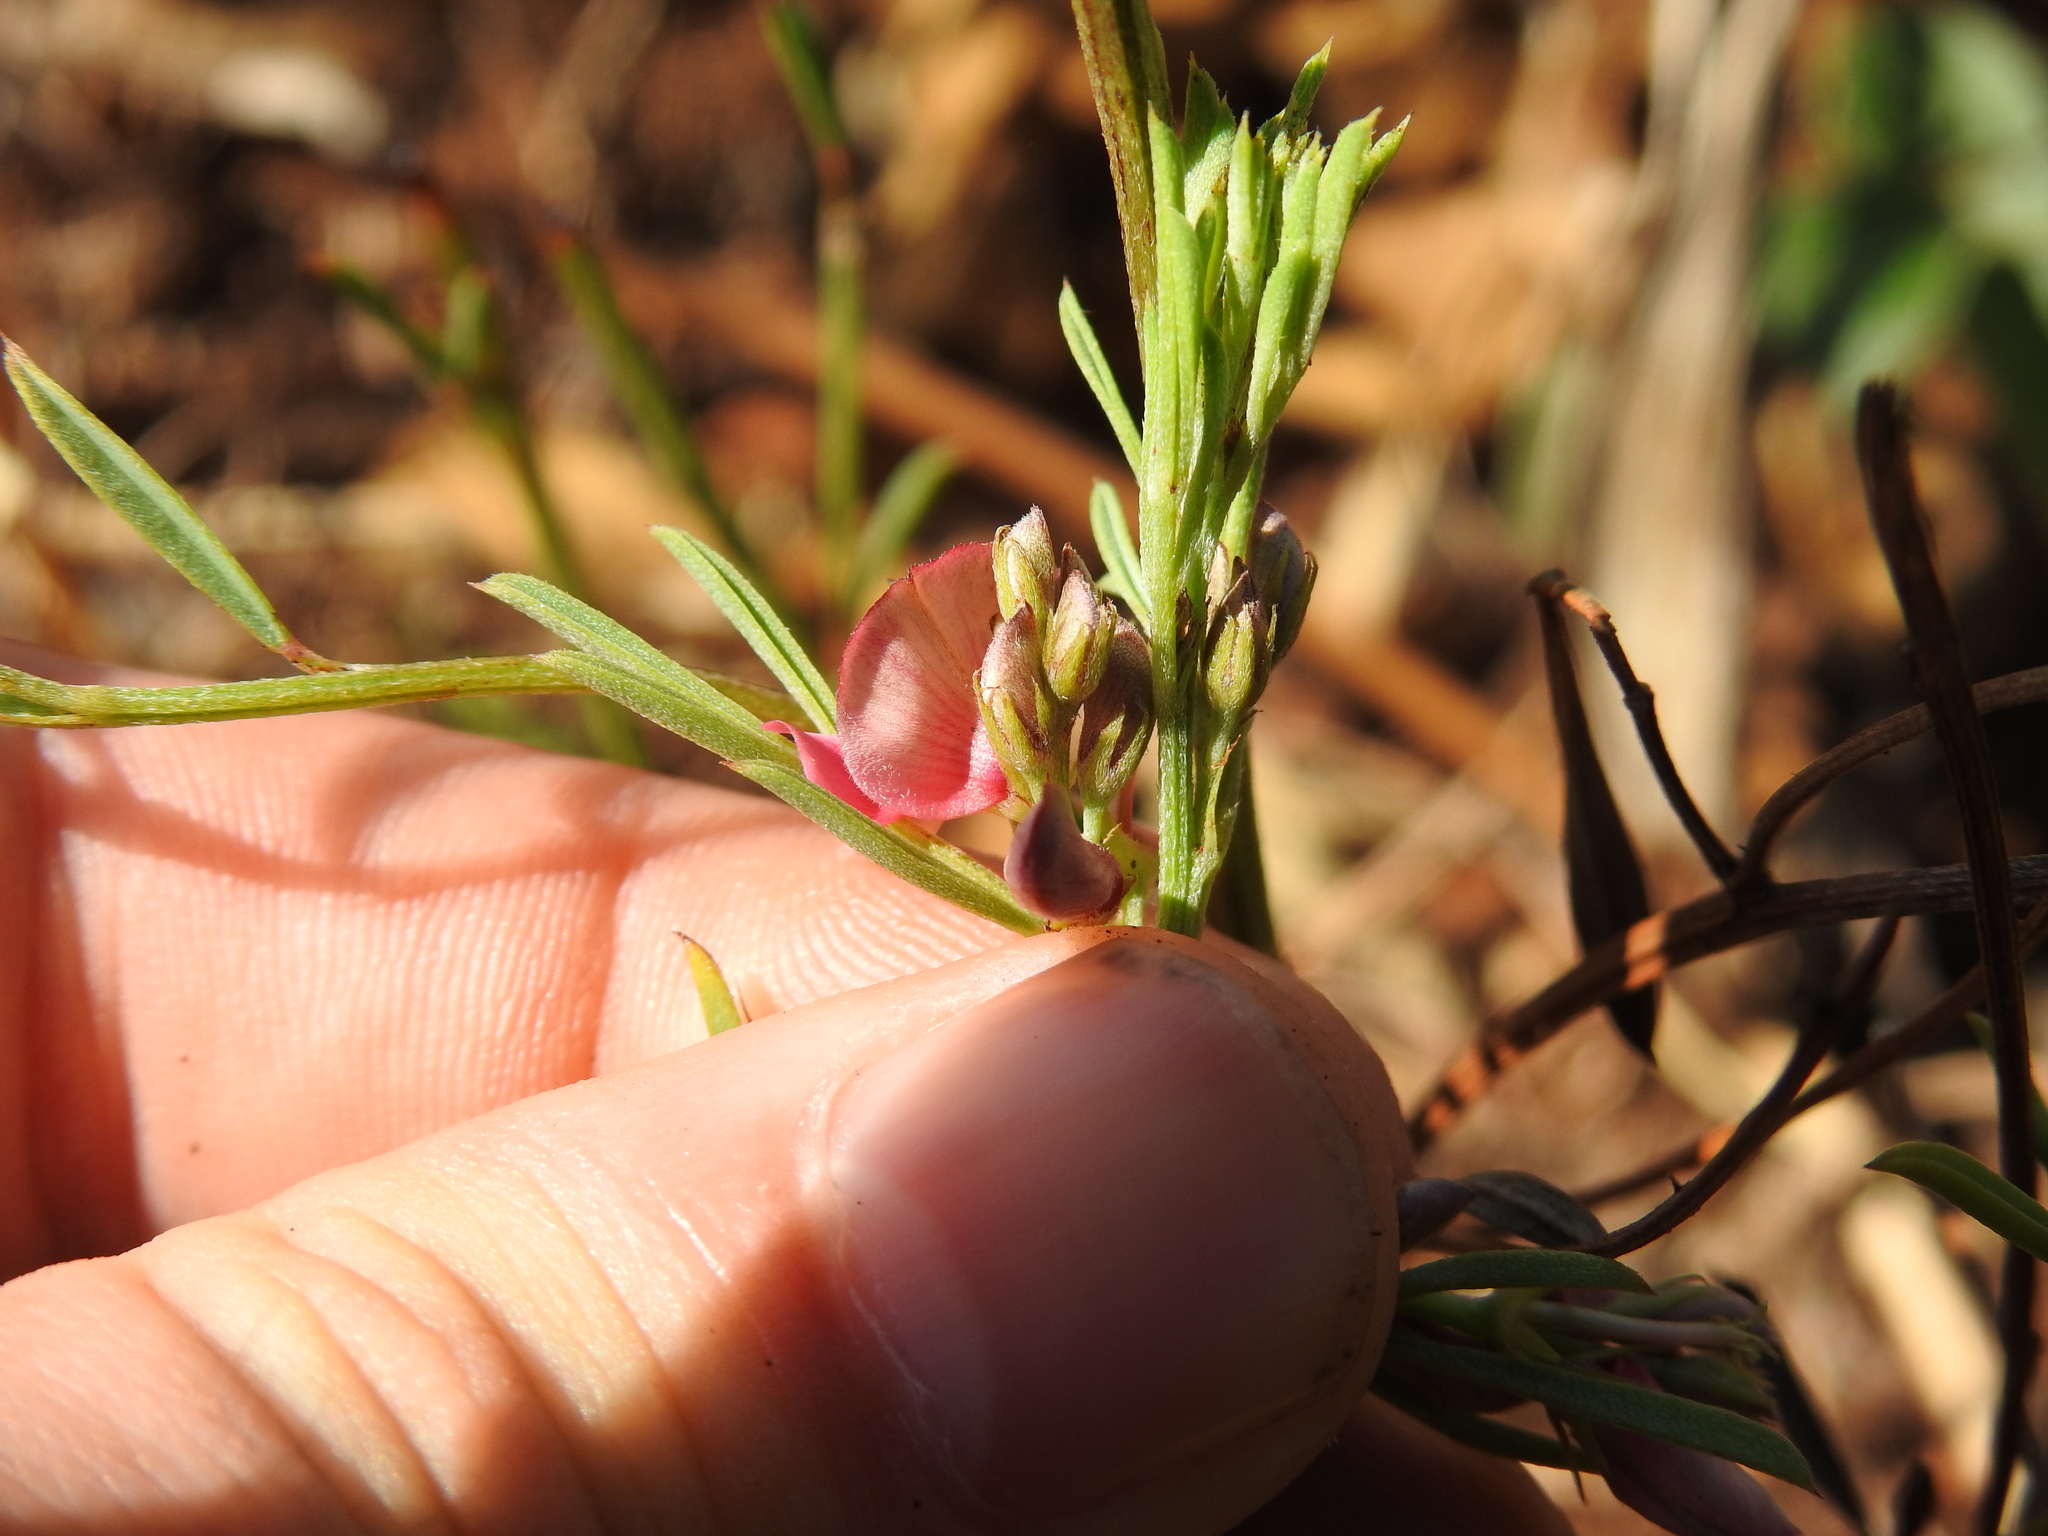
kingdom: Plantae
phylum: Tracheophyta
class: Magnoliopsida
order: Fabales
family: Fabaceae
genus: Indigofera
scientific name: Indigofera hilaris
